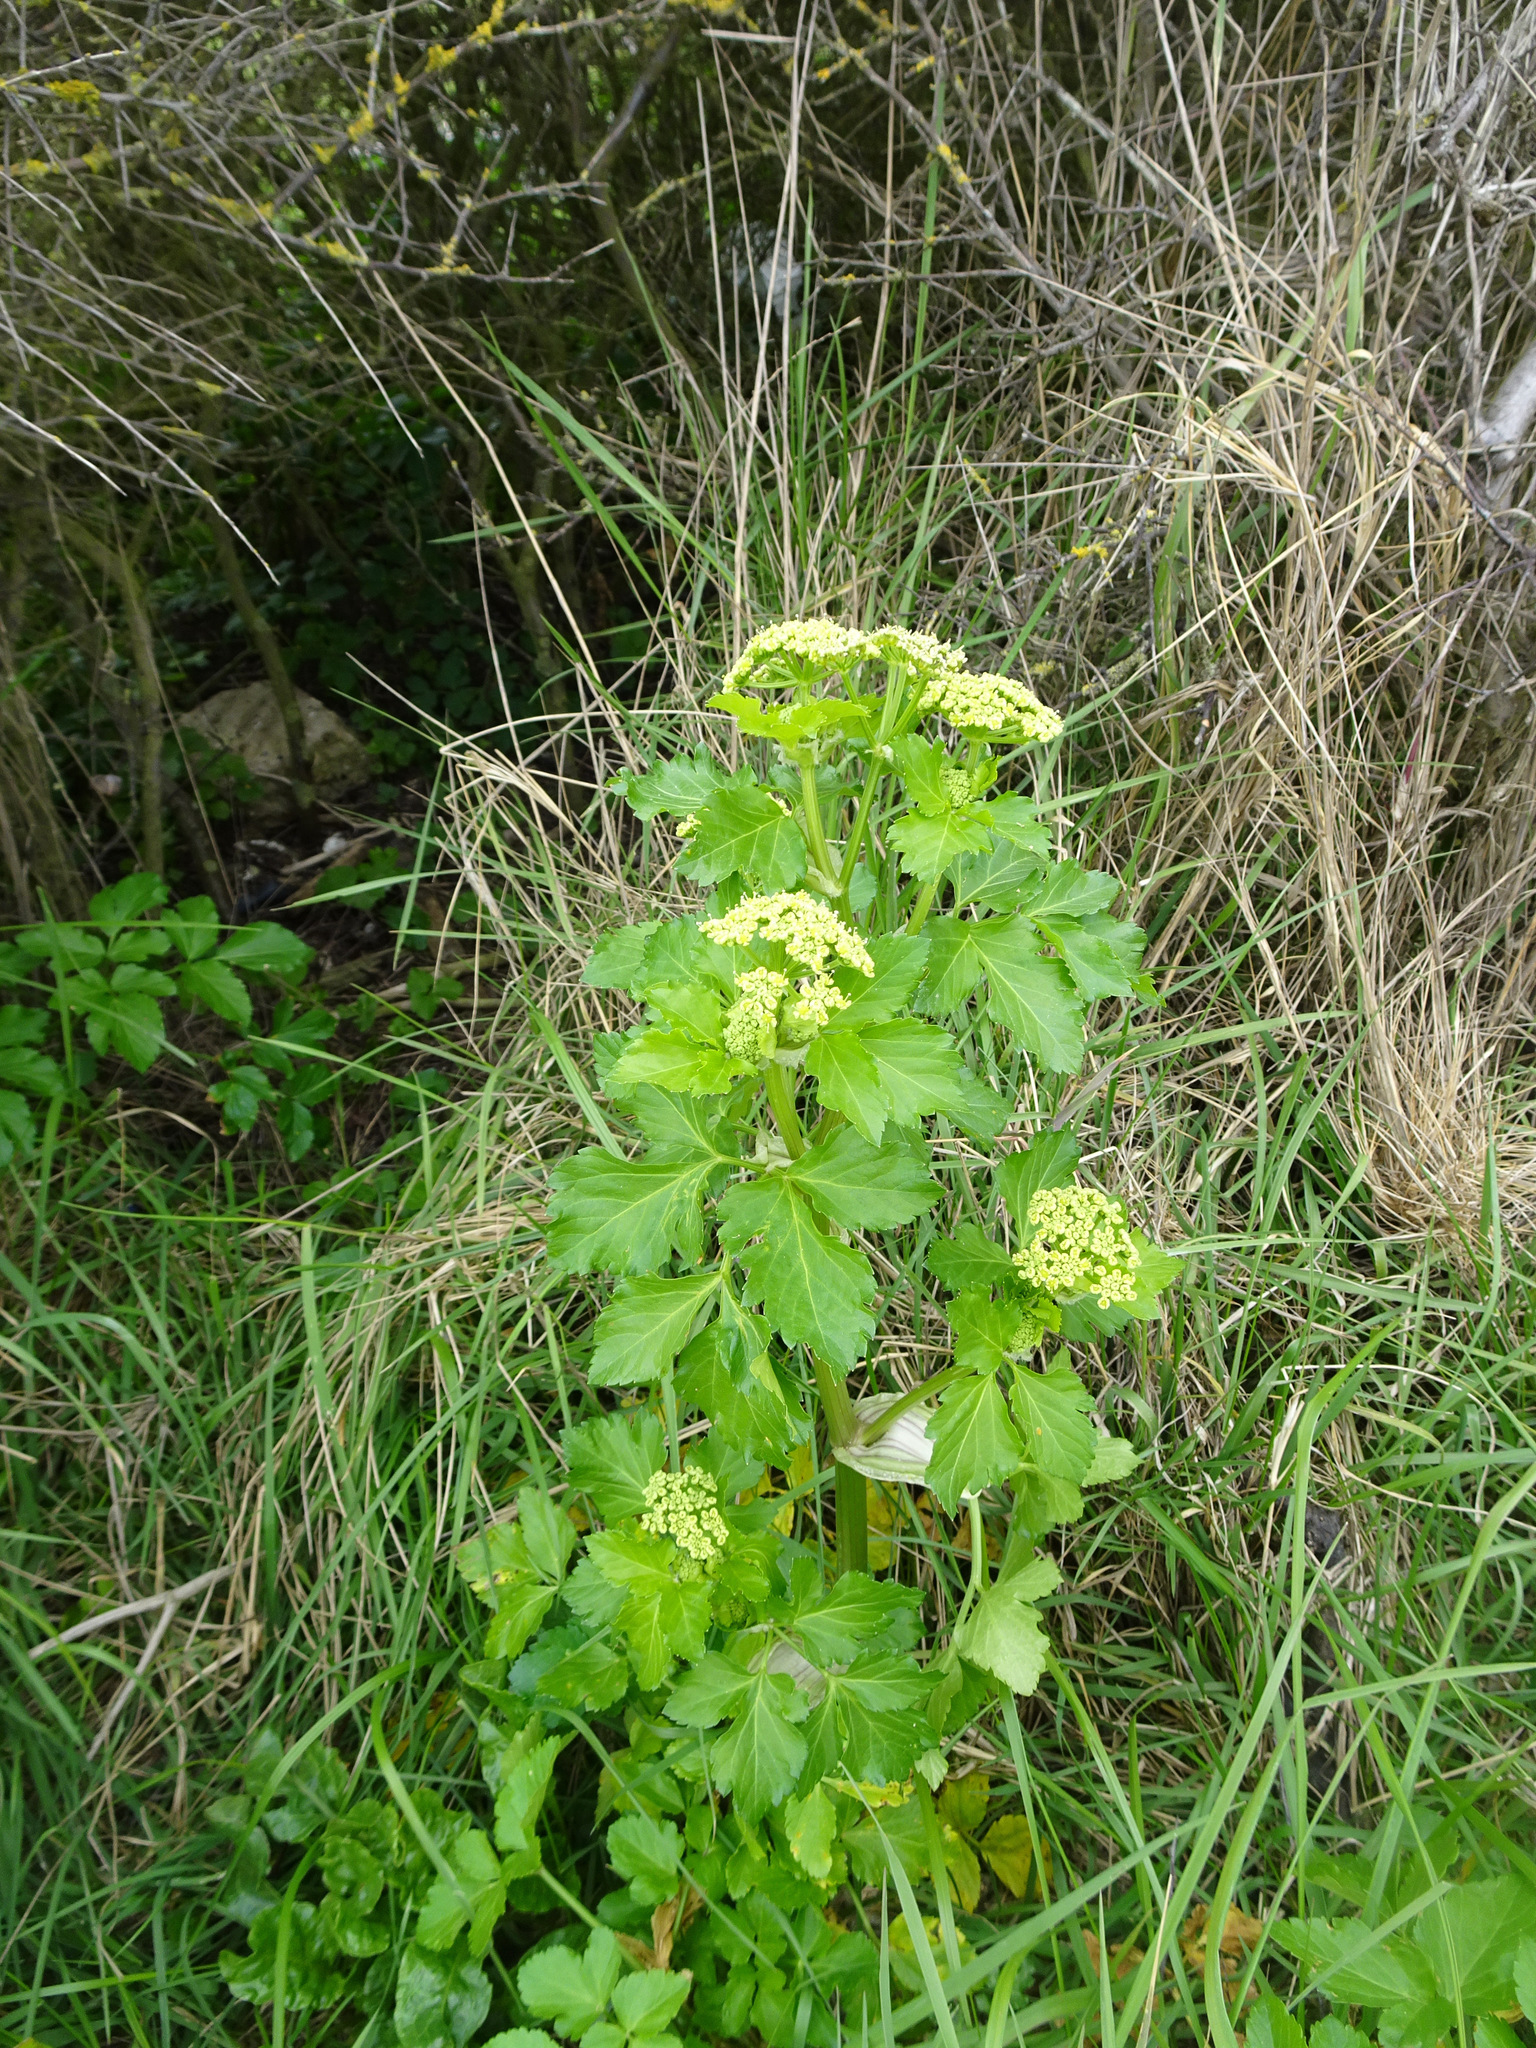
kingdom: Plantae
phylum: Tracheophyta
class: Magnoliopsida
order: Apiales
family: Apiaceae
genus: Smyrnium
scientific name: Smyrnium olusatrum
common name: Alexanders
